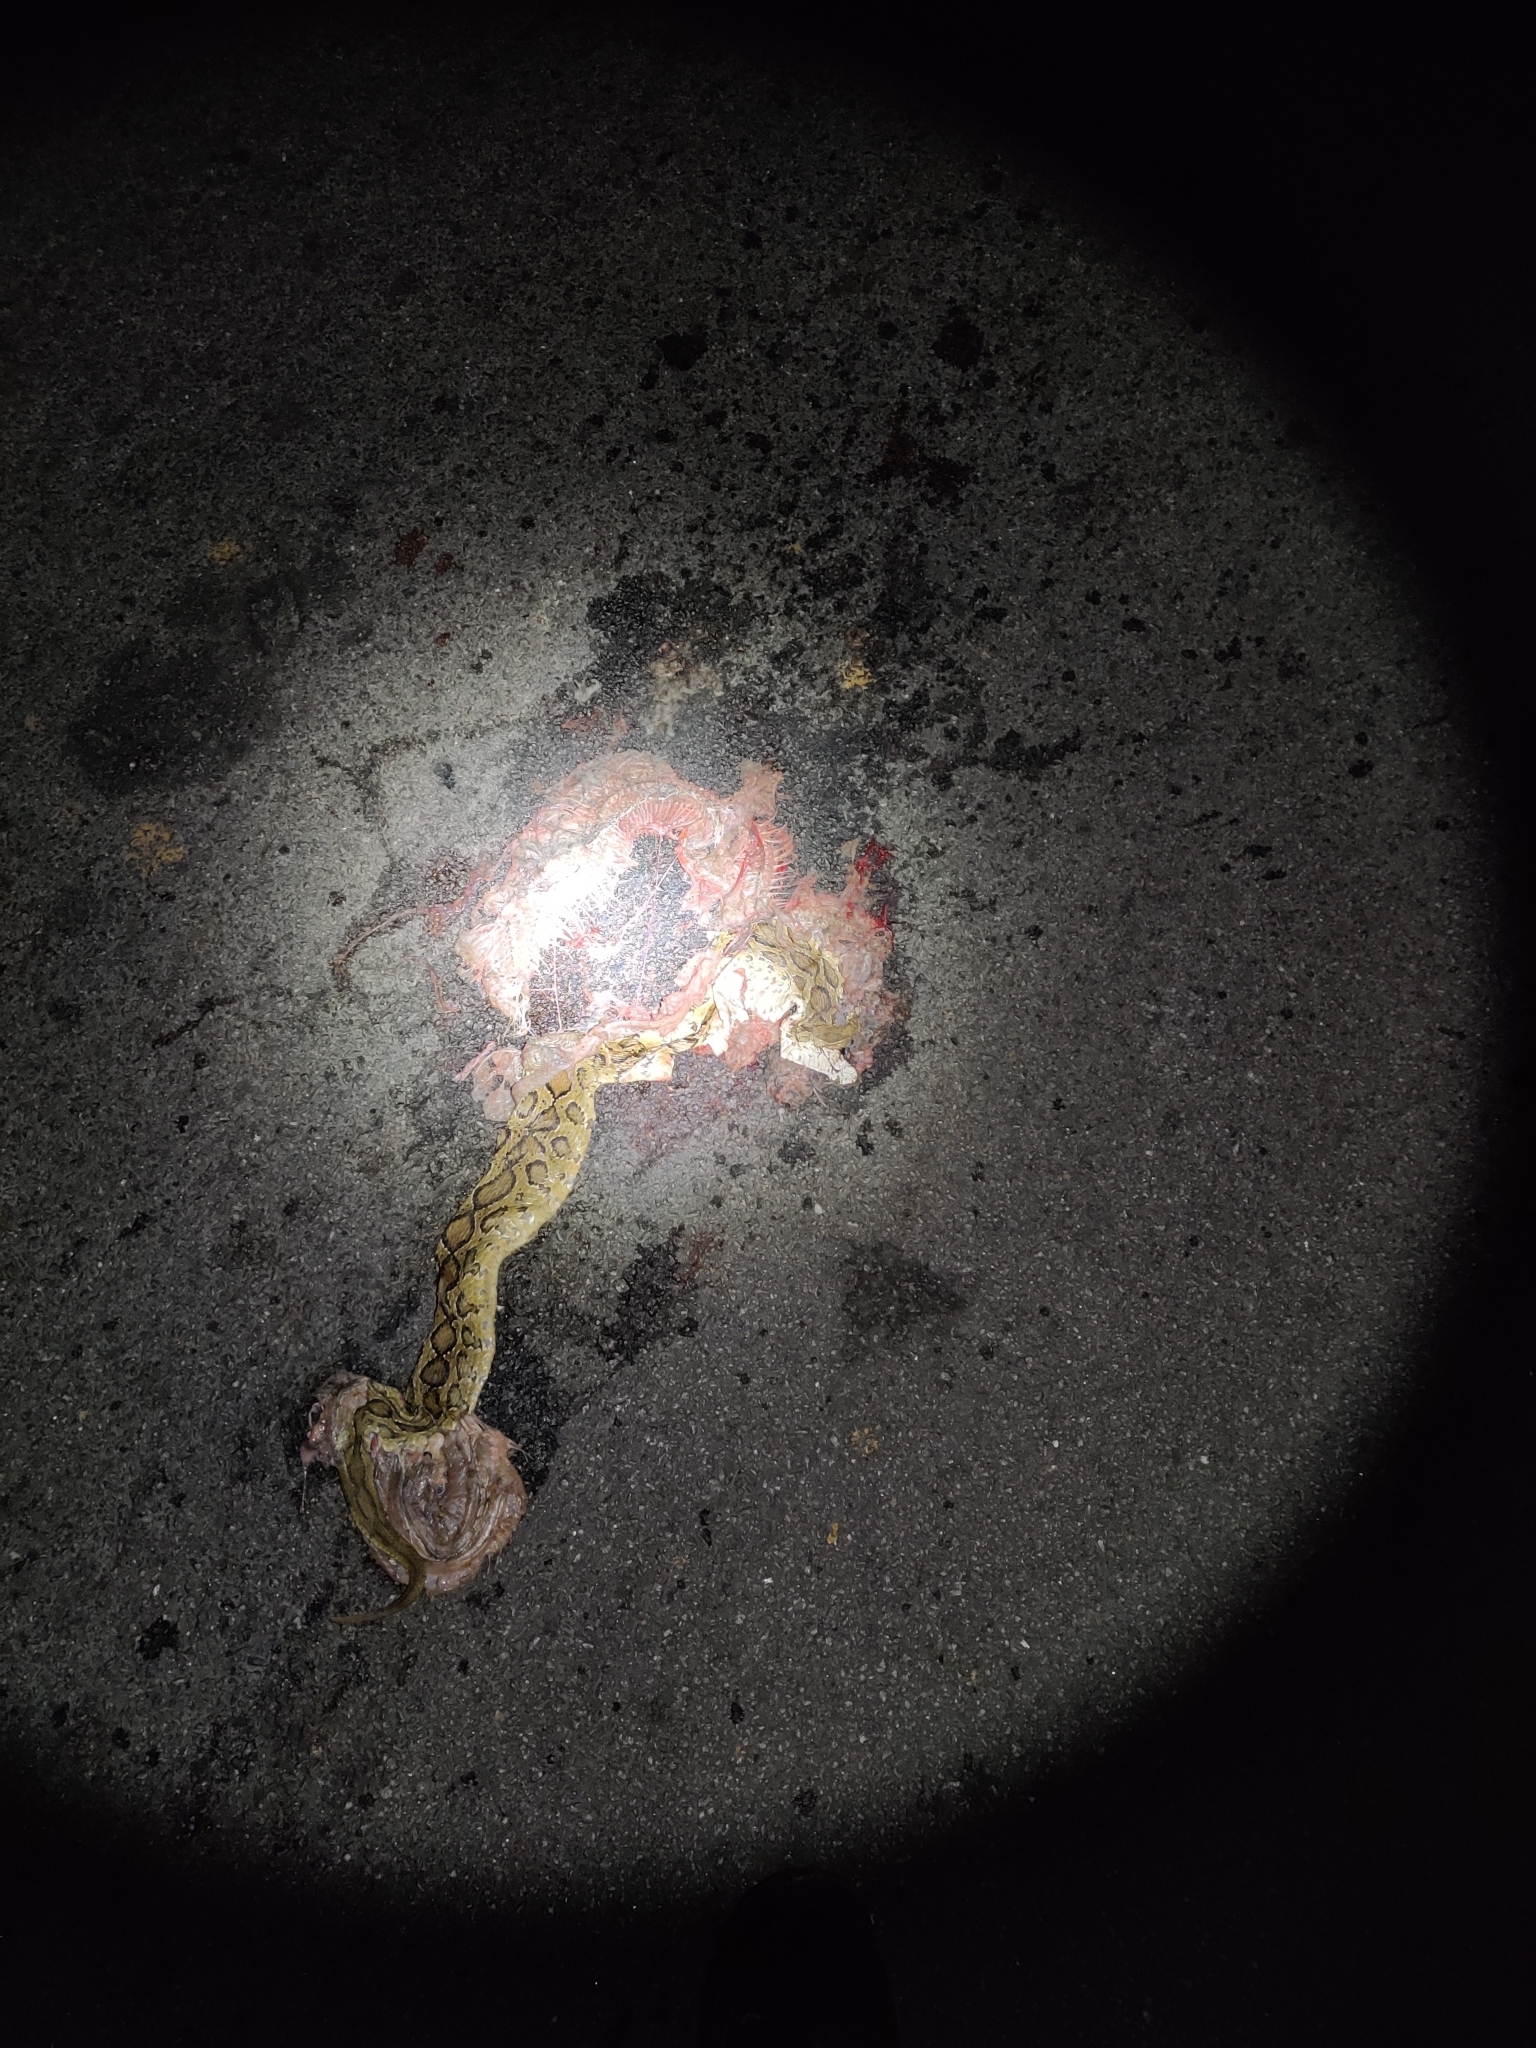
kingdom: Animalia
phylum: Chordata
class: Squamata
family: Viperidae
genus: Daboia
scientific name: Daboia russelii
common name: Western russel’s viper
